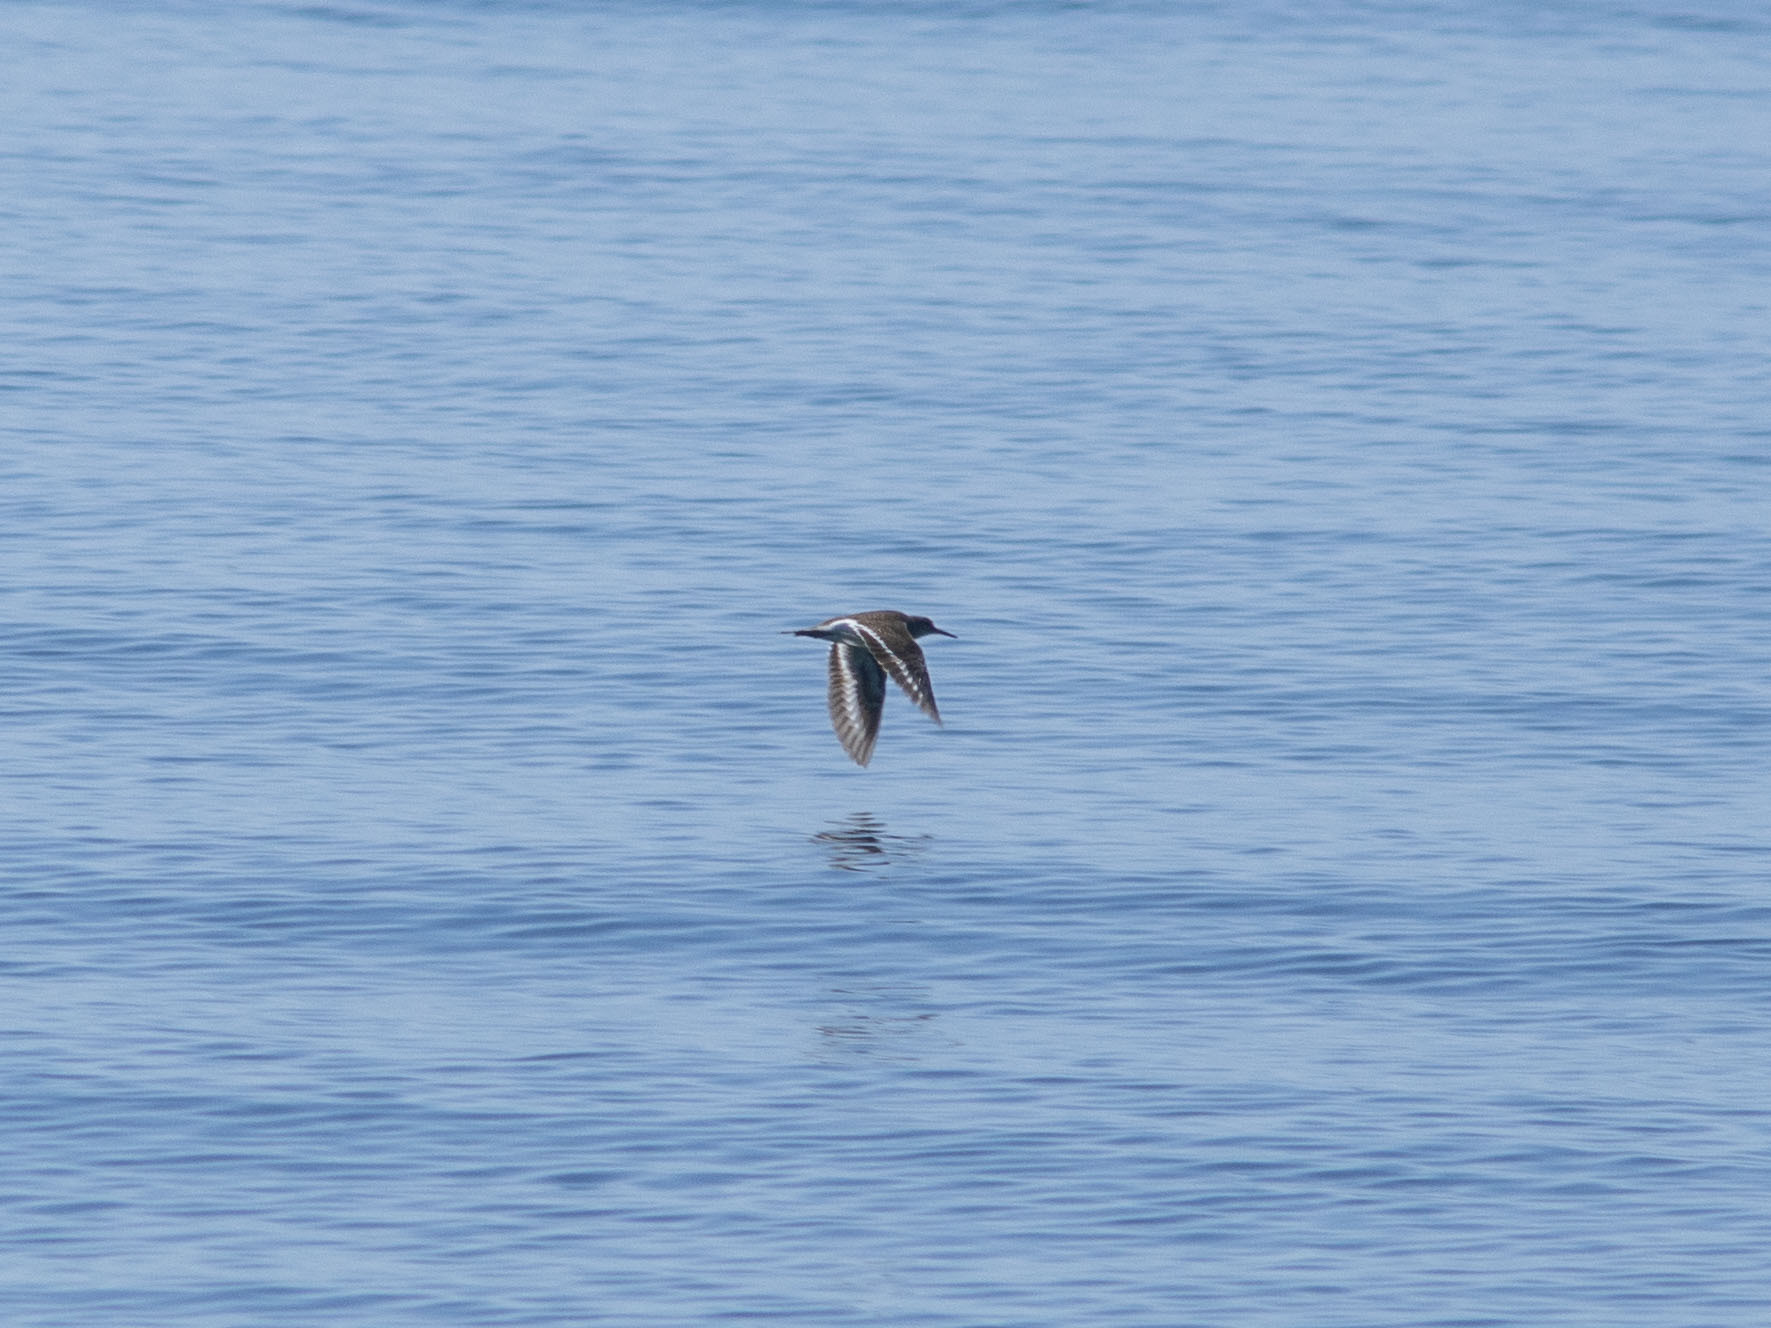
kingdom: Animalia
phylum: Chordata
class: Aves
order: Charadriiformes
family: Scolopacidae
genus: Actitis
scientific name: Actitis hypoleucos
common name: Common sandpiper
